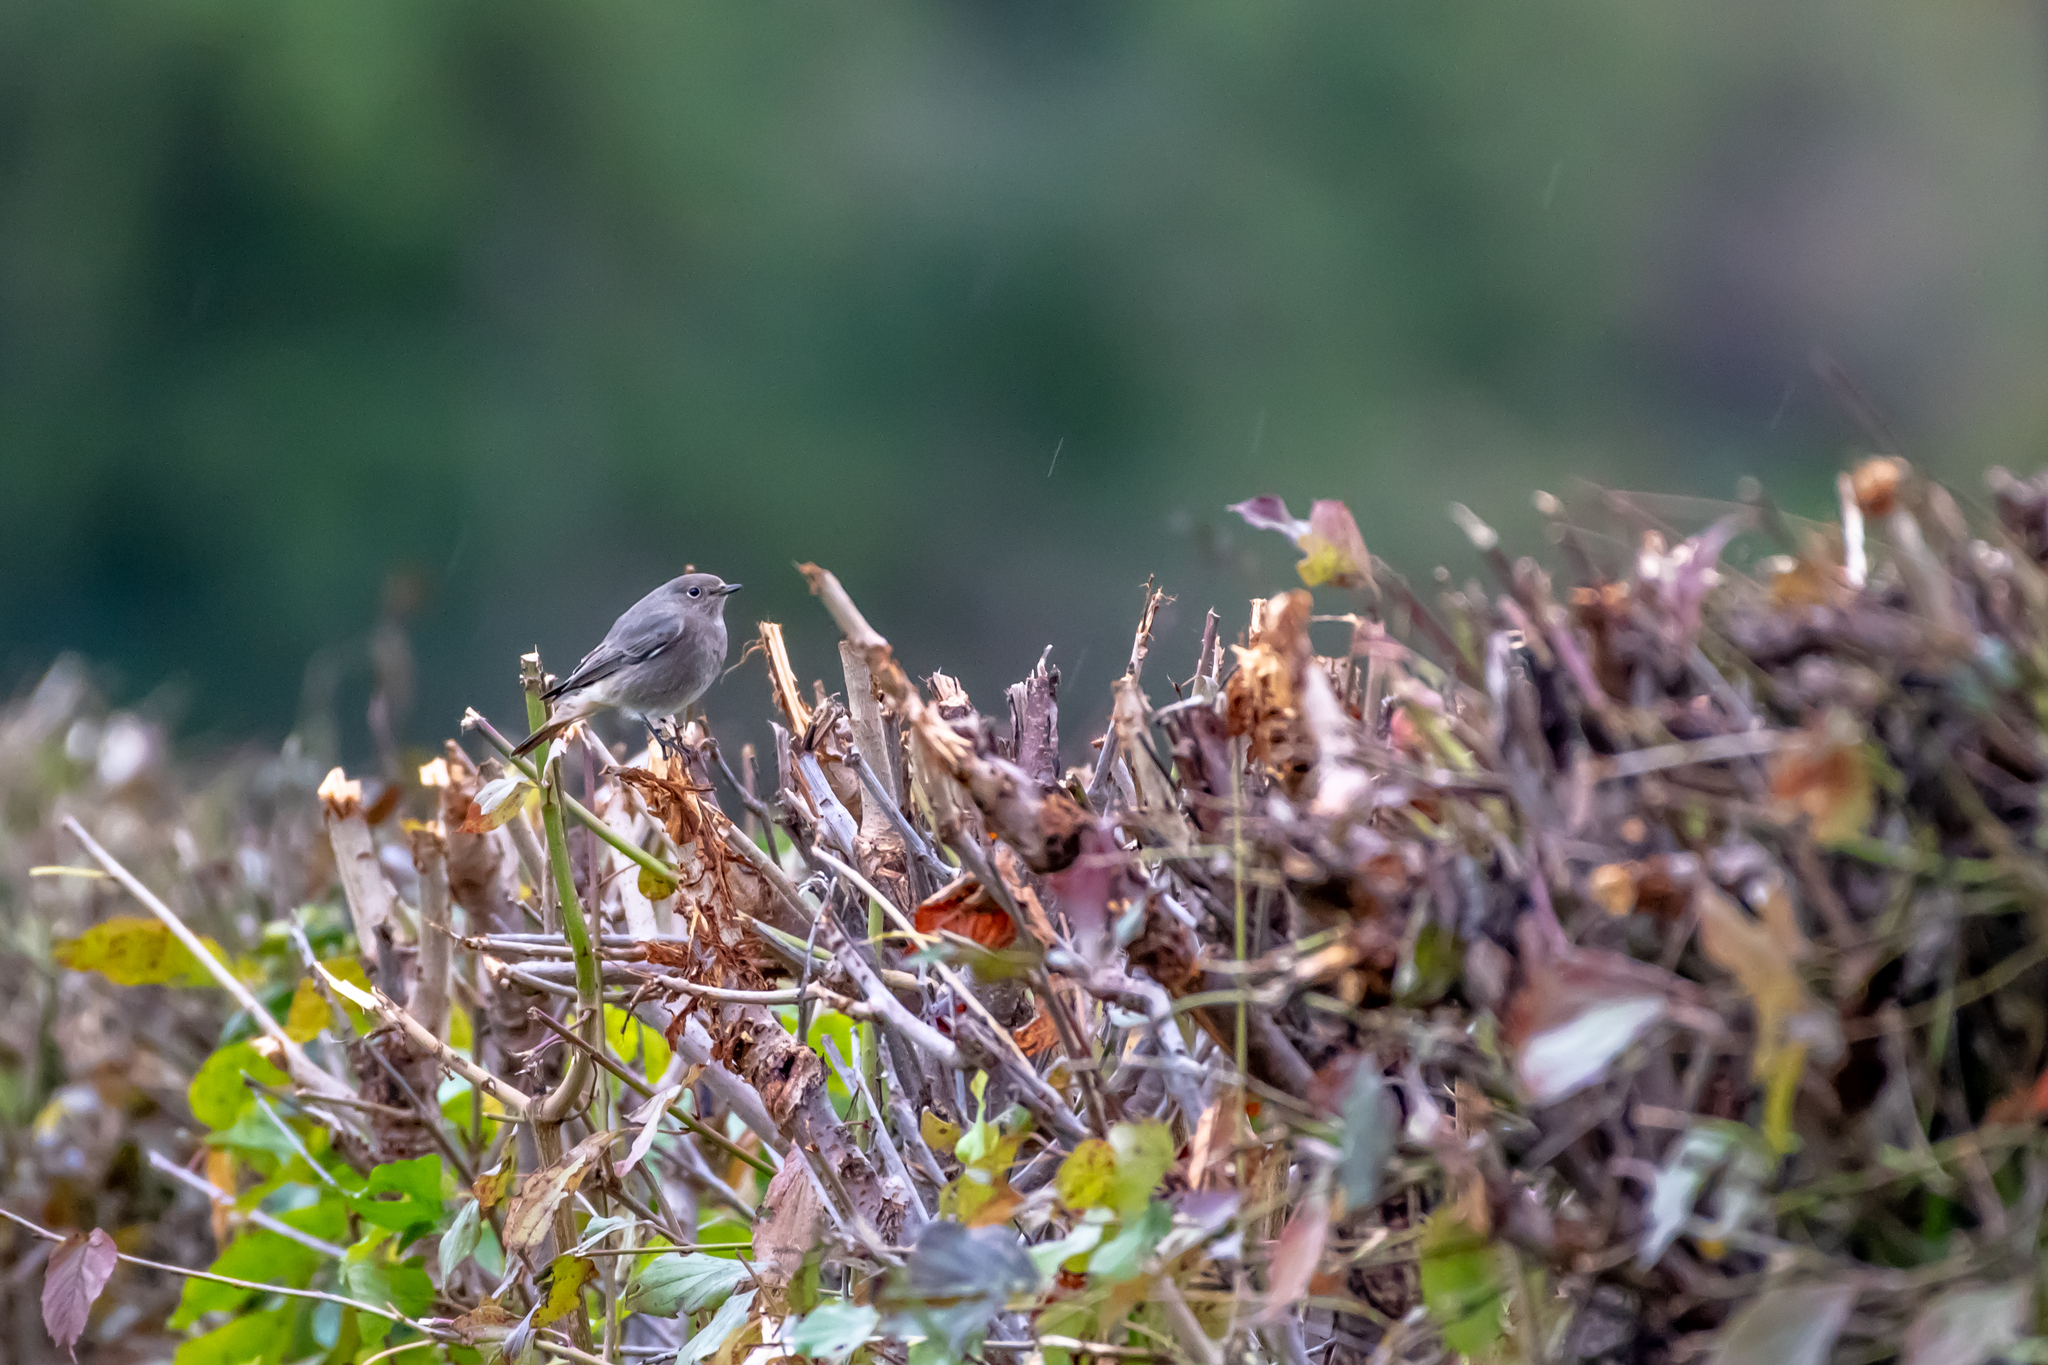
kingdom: Animalia
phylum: Chordata
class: Aves
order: Passeriformes
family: Muscicapidae
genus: Phoenicurus
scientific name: Phoenicurus ochruros
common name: Black redstart
